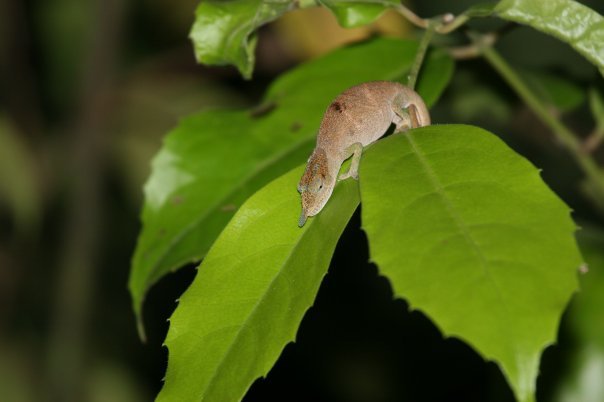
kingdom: Animalia
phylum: Chordata
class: Squamata
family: Chamaeleonidae
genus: Calumma
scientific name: Calumma linotum
